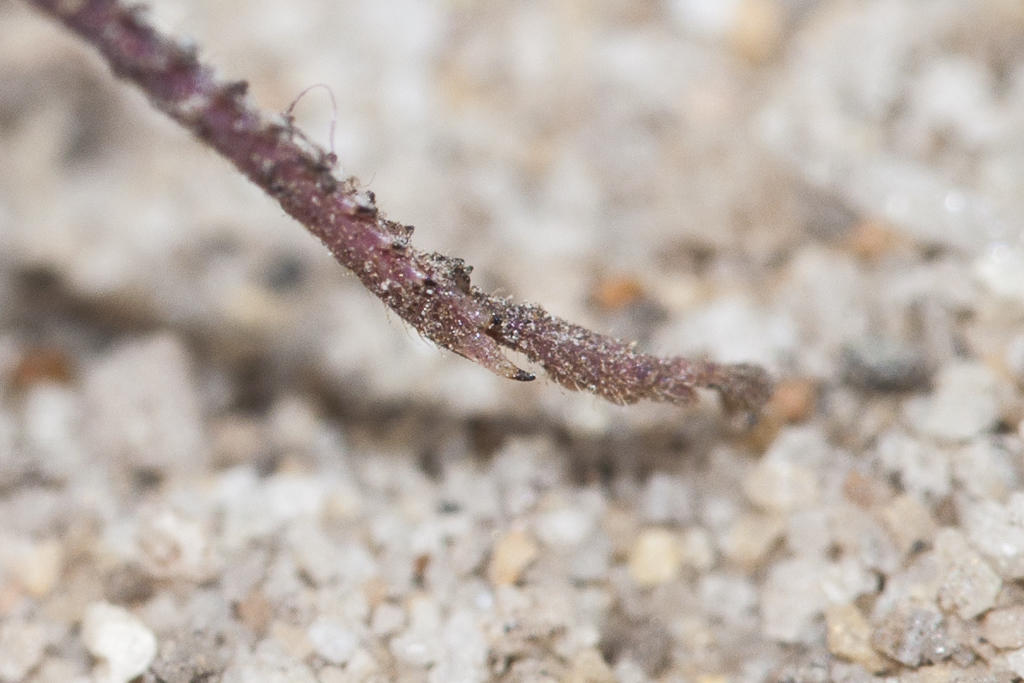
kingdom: Animalia
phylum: Arthropoda
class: Insecta
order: Orthoptera
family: Thericleidae
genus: Thericlesiella
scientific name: Thericlesiella meridionalis
